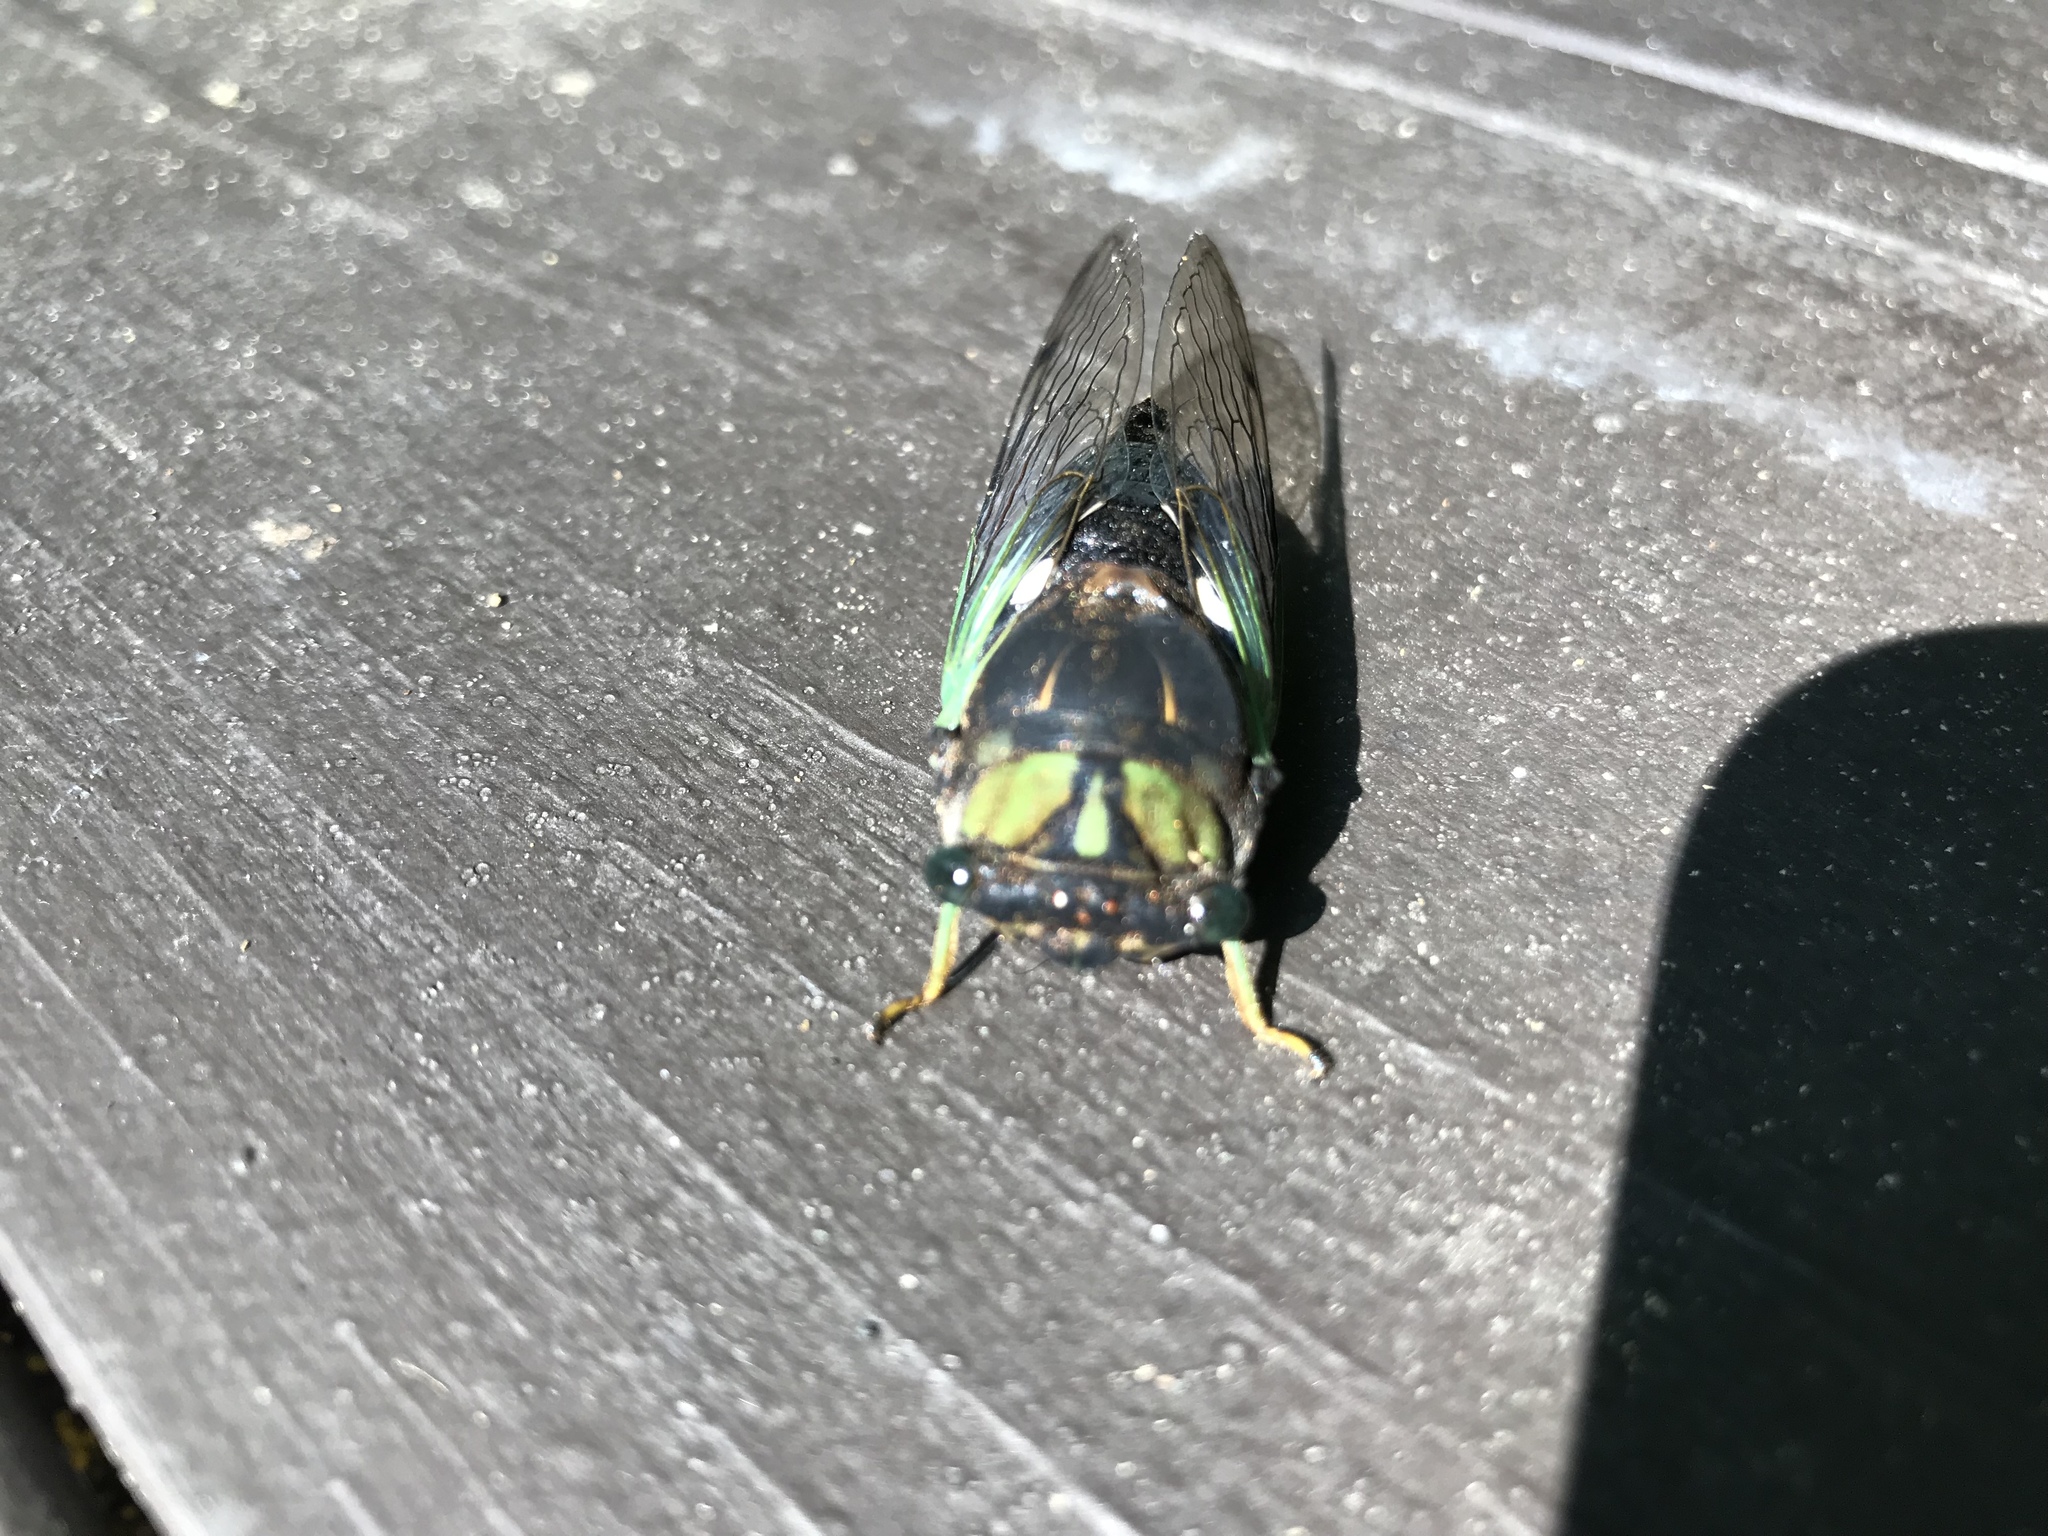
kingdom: Animalia
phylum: Arthropoda
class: Insecta
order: Hemiptera
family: Cicadidae
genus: Neotibicen
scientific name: Neotibicen tibicen
